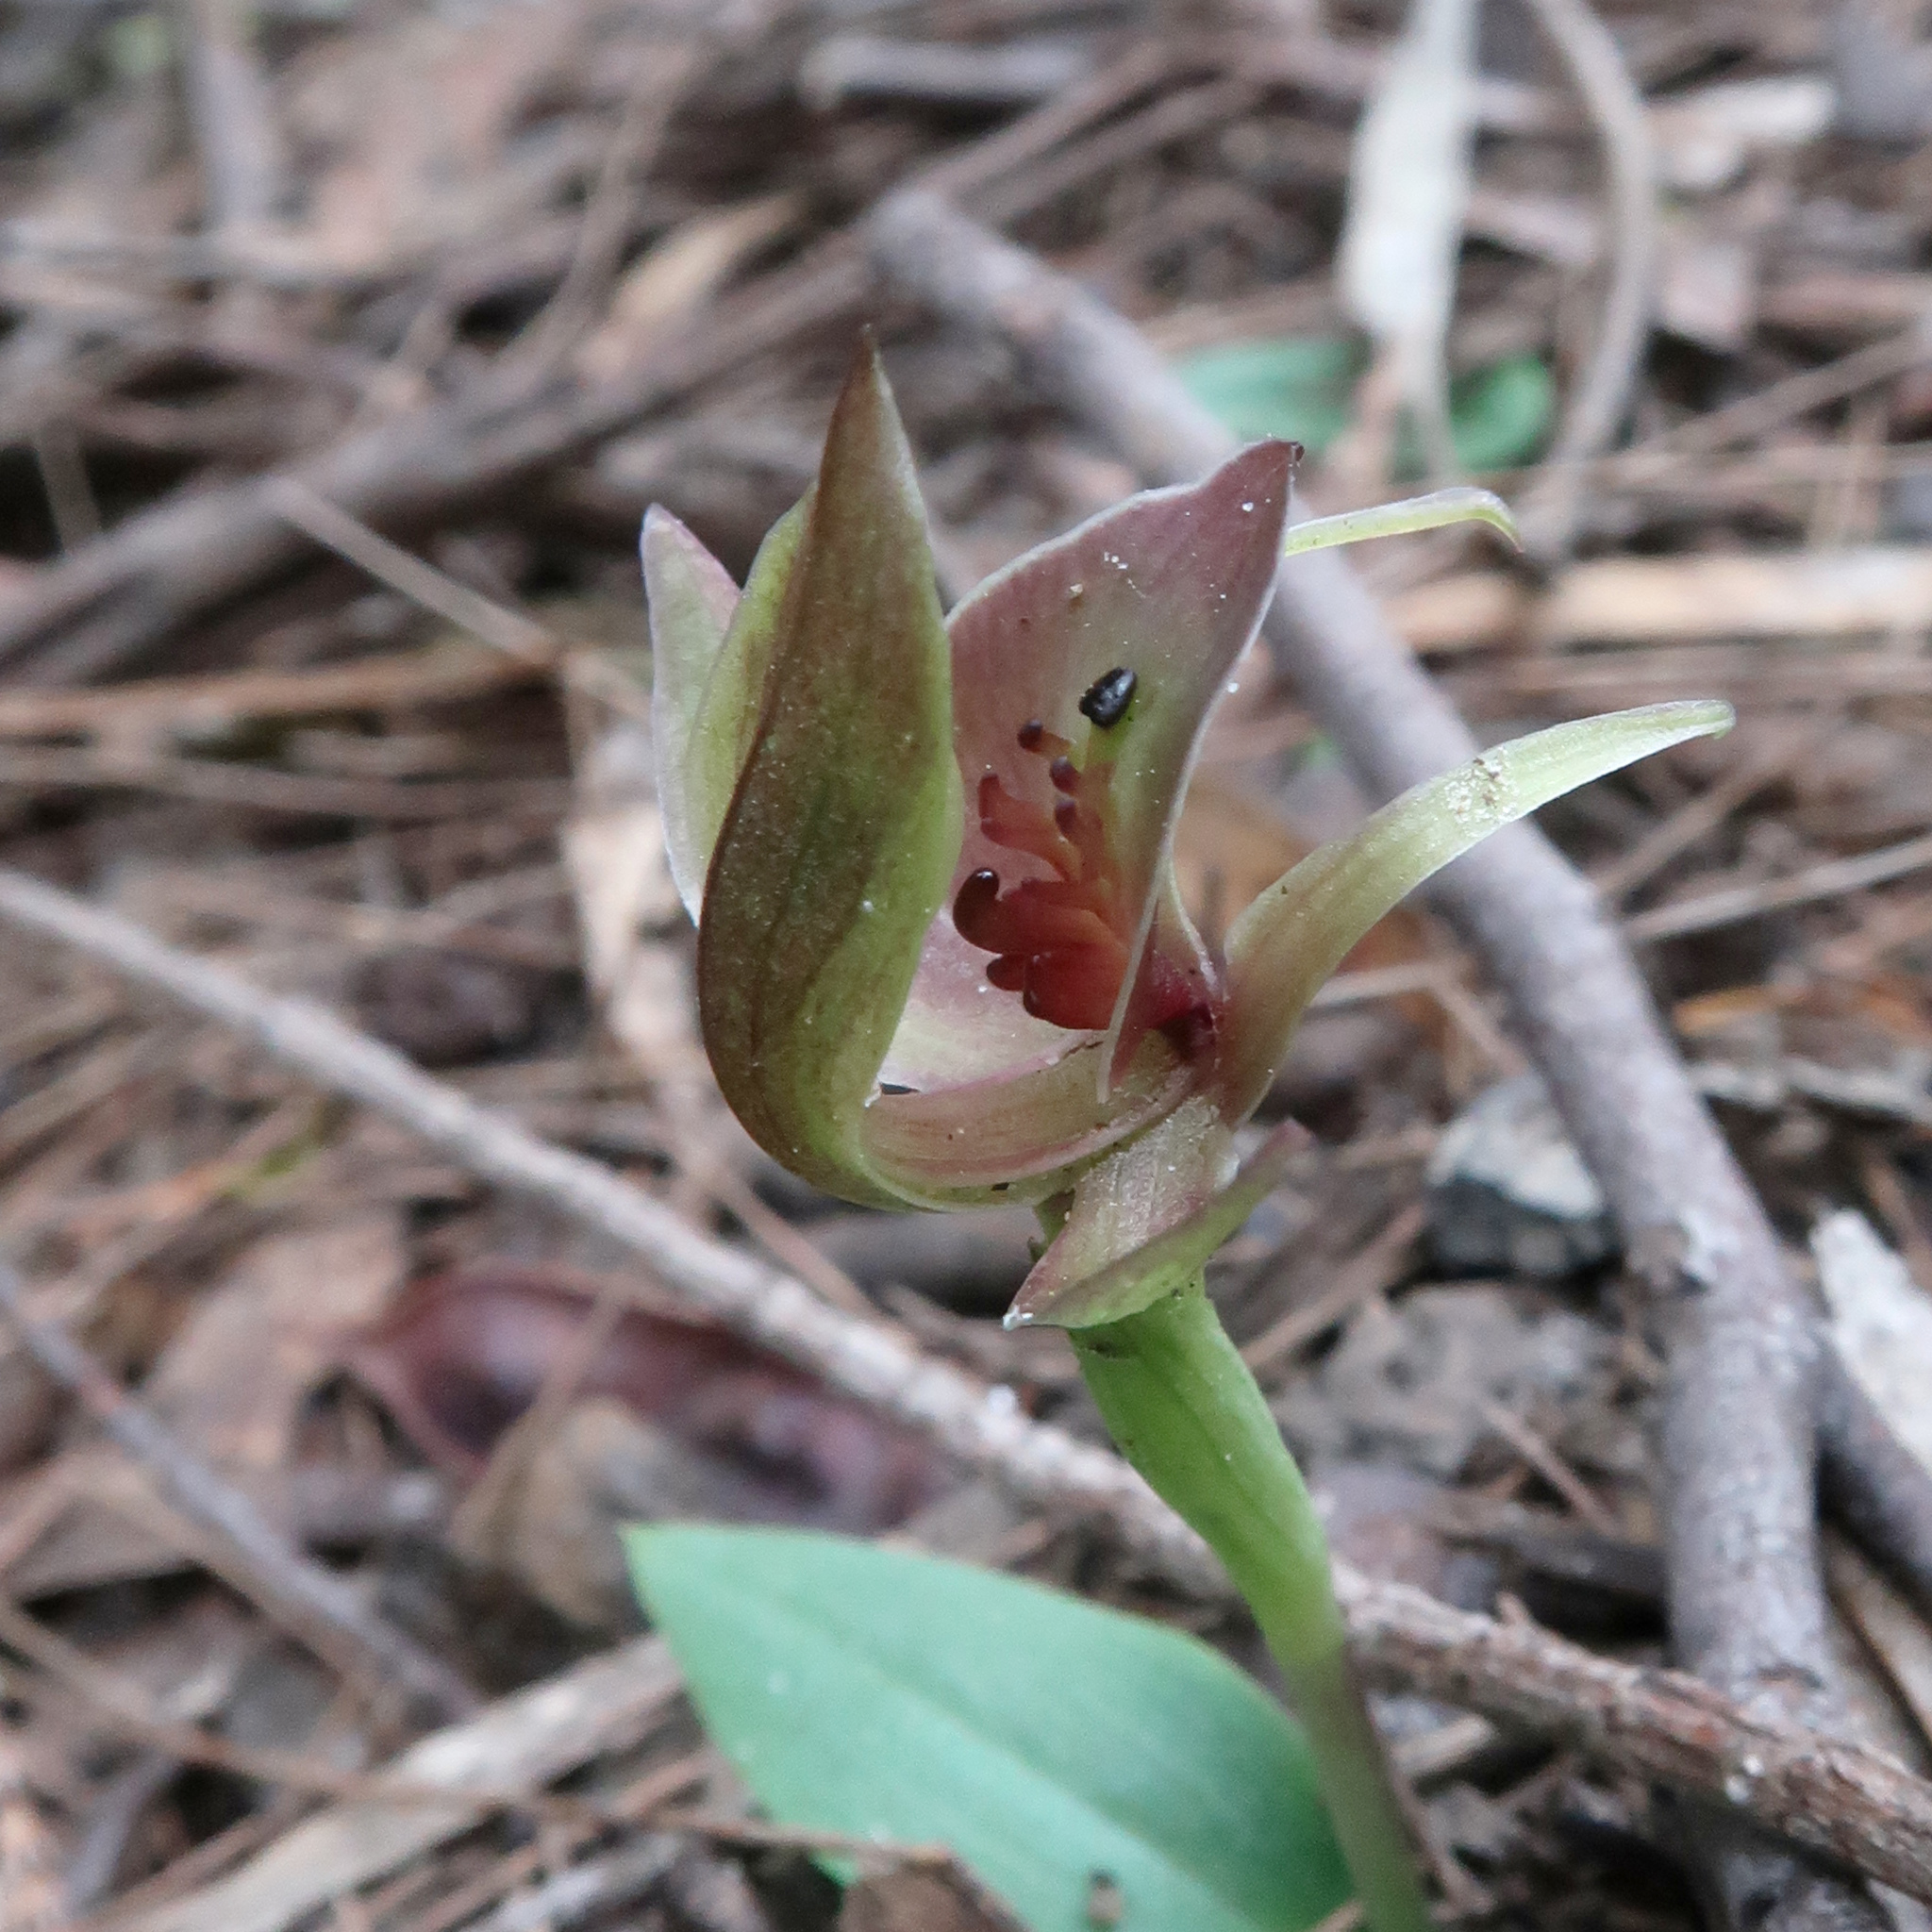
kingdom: Plantae
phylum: Tracheophyta
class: Liliopsida
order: Asparagales
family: Orchidaceae
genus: Chiloglottis
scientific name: Chiloglottis triceratops
